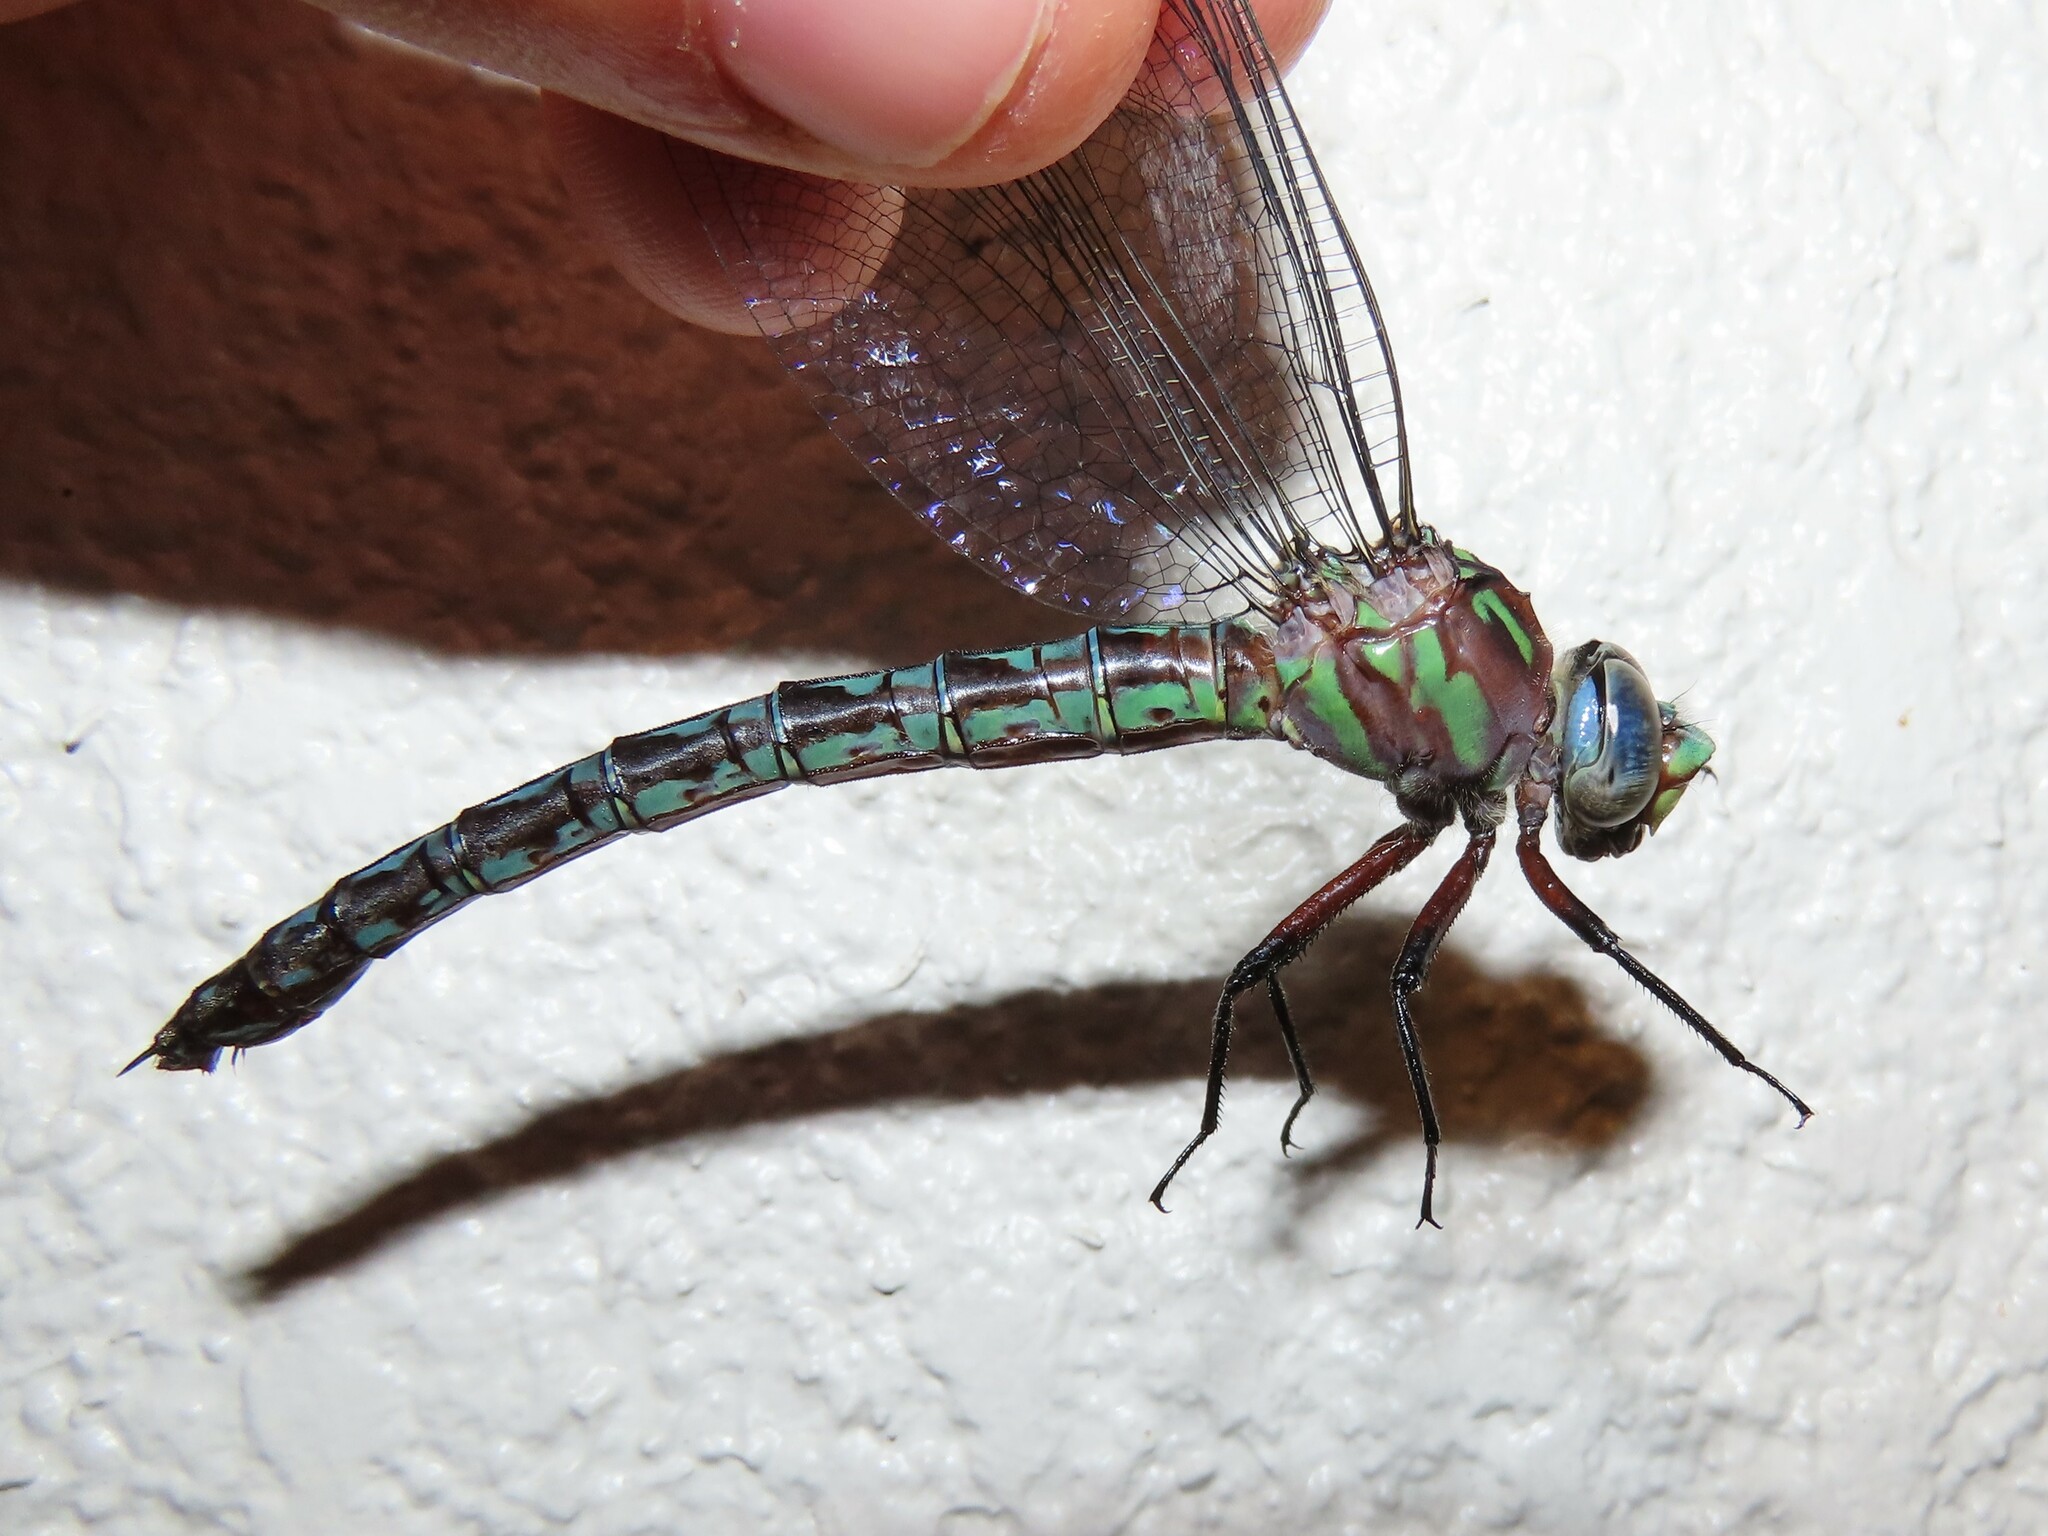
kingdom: Animalia
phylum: Arthropoda
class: Insecta
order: Odonata
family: Aeshnidae
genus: Nasiaeschna
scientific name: Nasiaeschna pentacantha
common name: Cyrano darner
